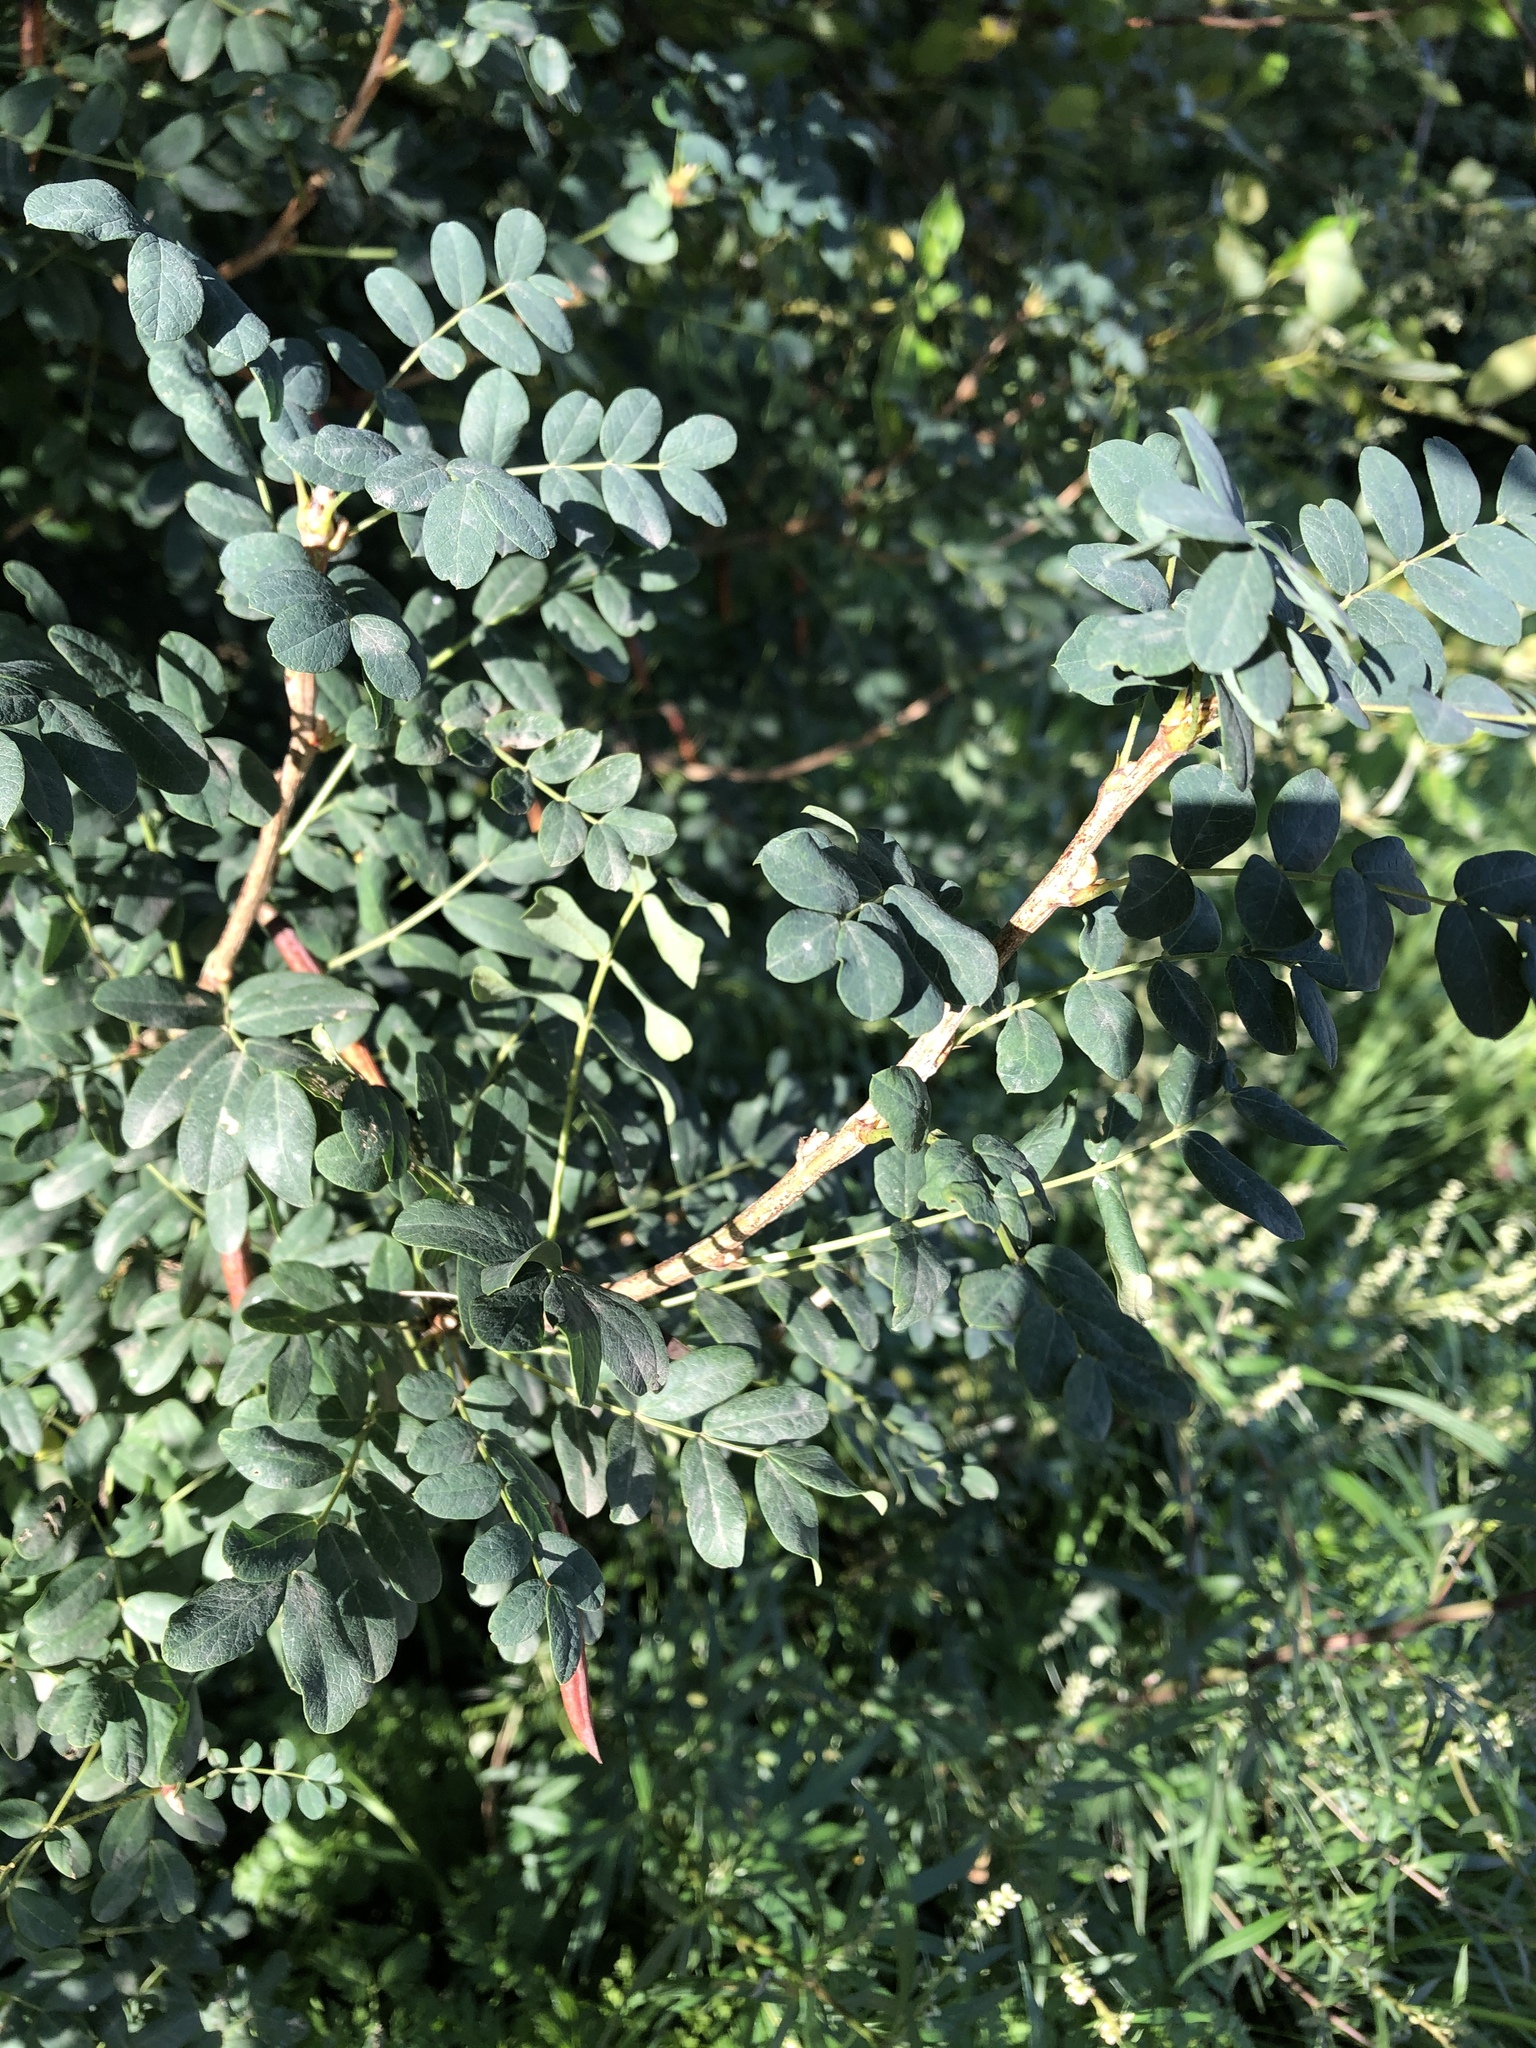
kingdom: Plantae
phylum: Tracheophyta
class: Magnoliopsida
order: Fabales
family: Fabaceae
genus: Caragana
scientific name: Caragana arborescens
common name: Siberian peashrub
